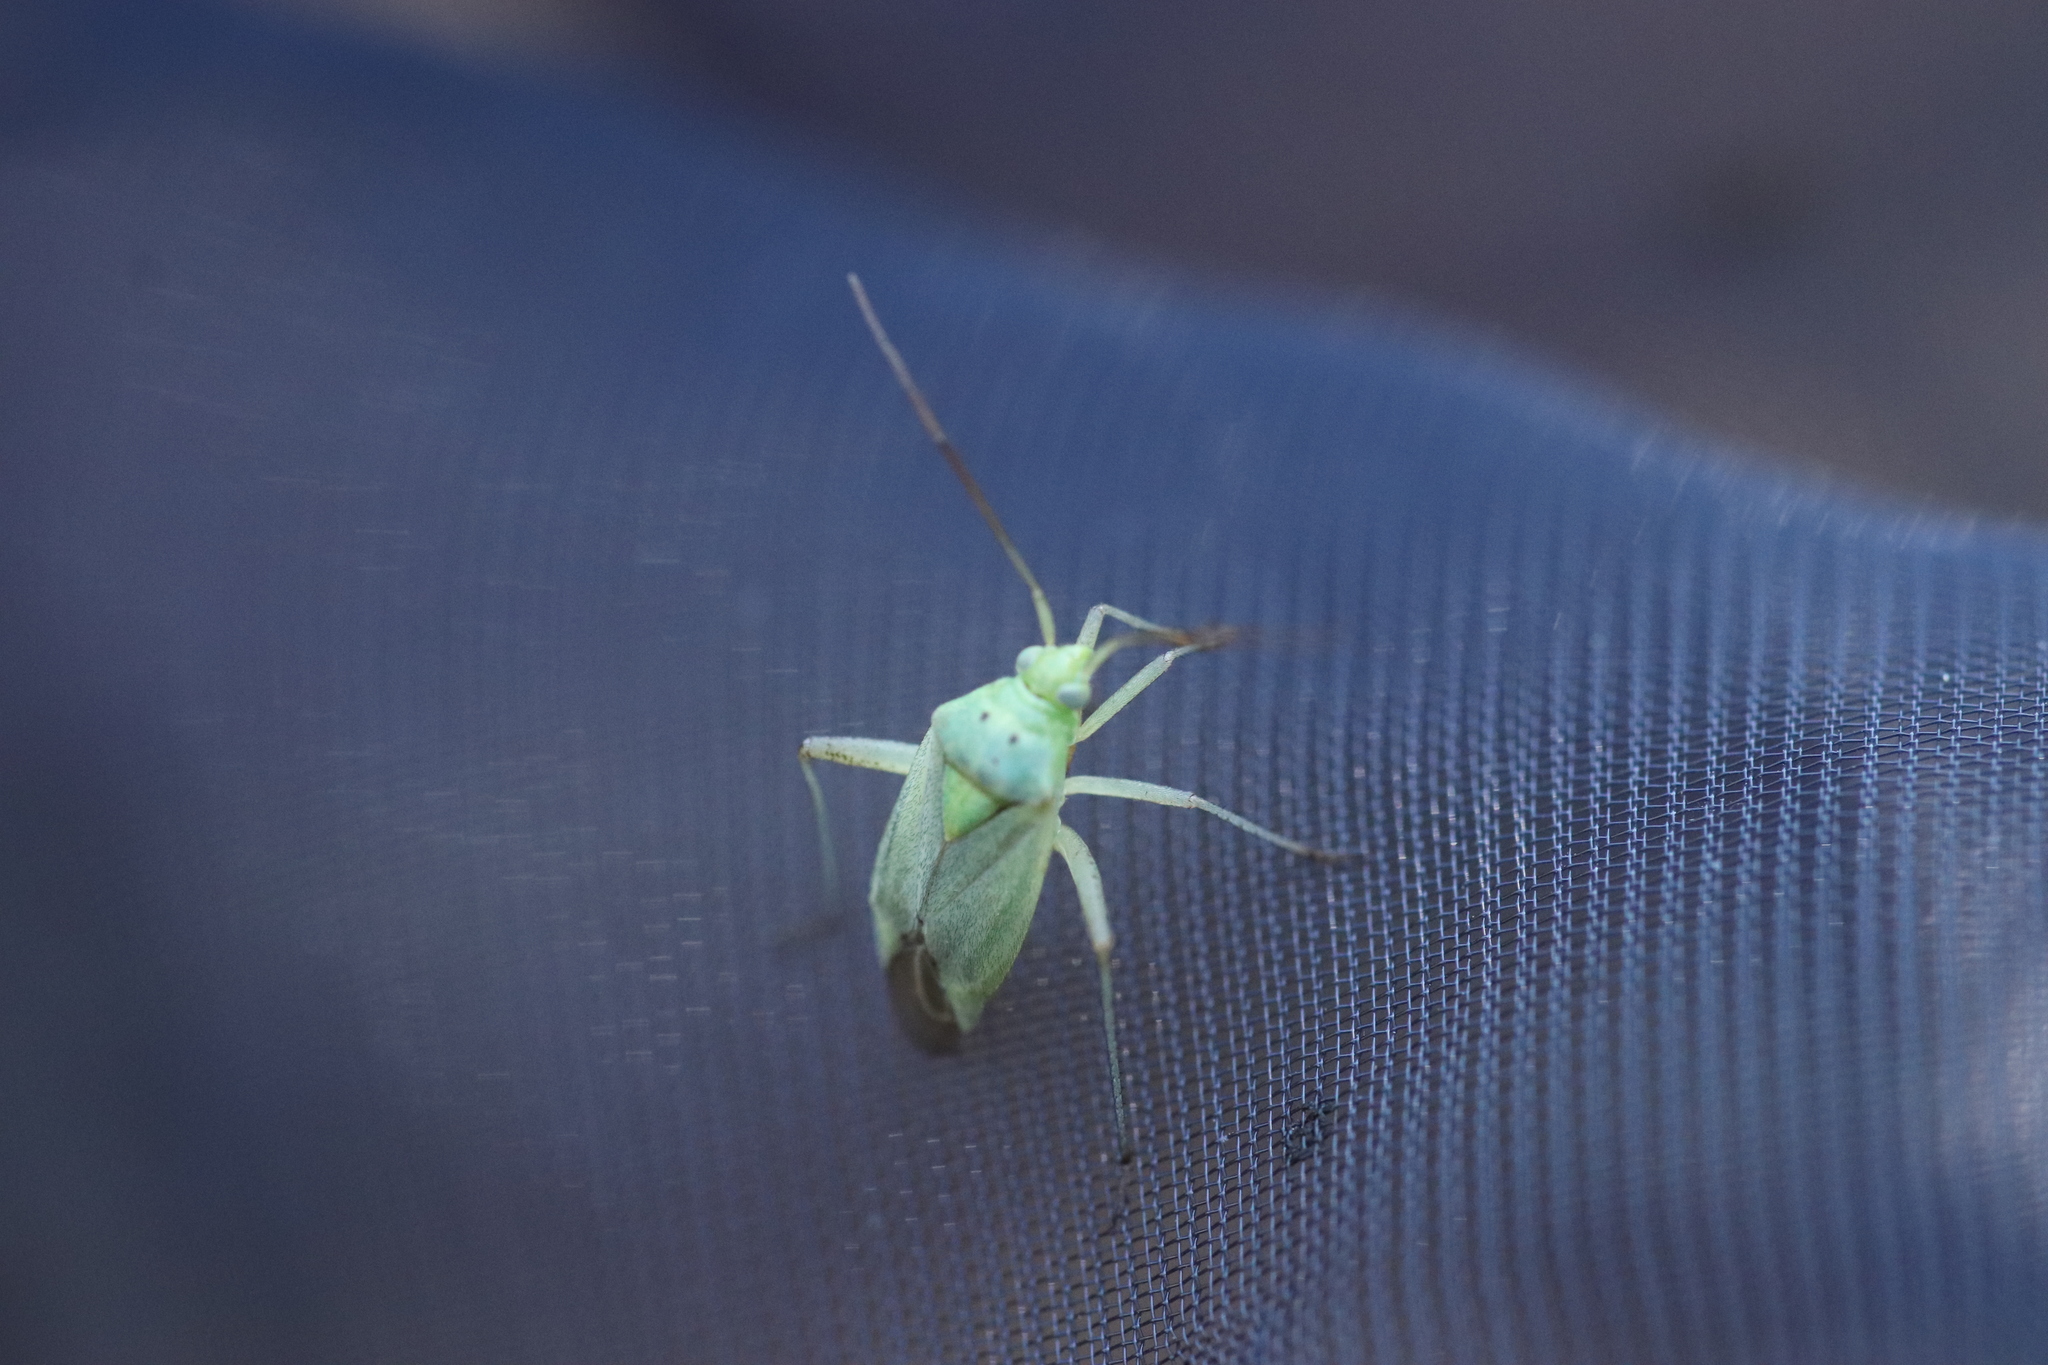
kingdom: Animalia
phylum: Arthropoda
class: Insecta
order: Hemiptera
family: Miridae
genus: Closterotomus
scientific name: Closterotomus norvegicus
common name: Plant bug
